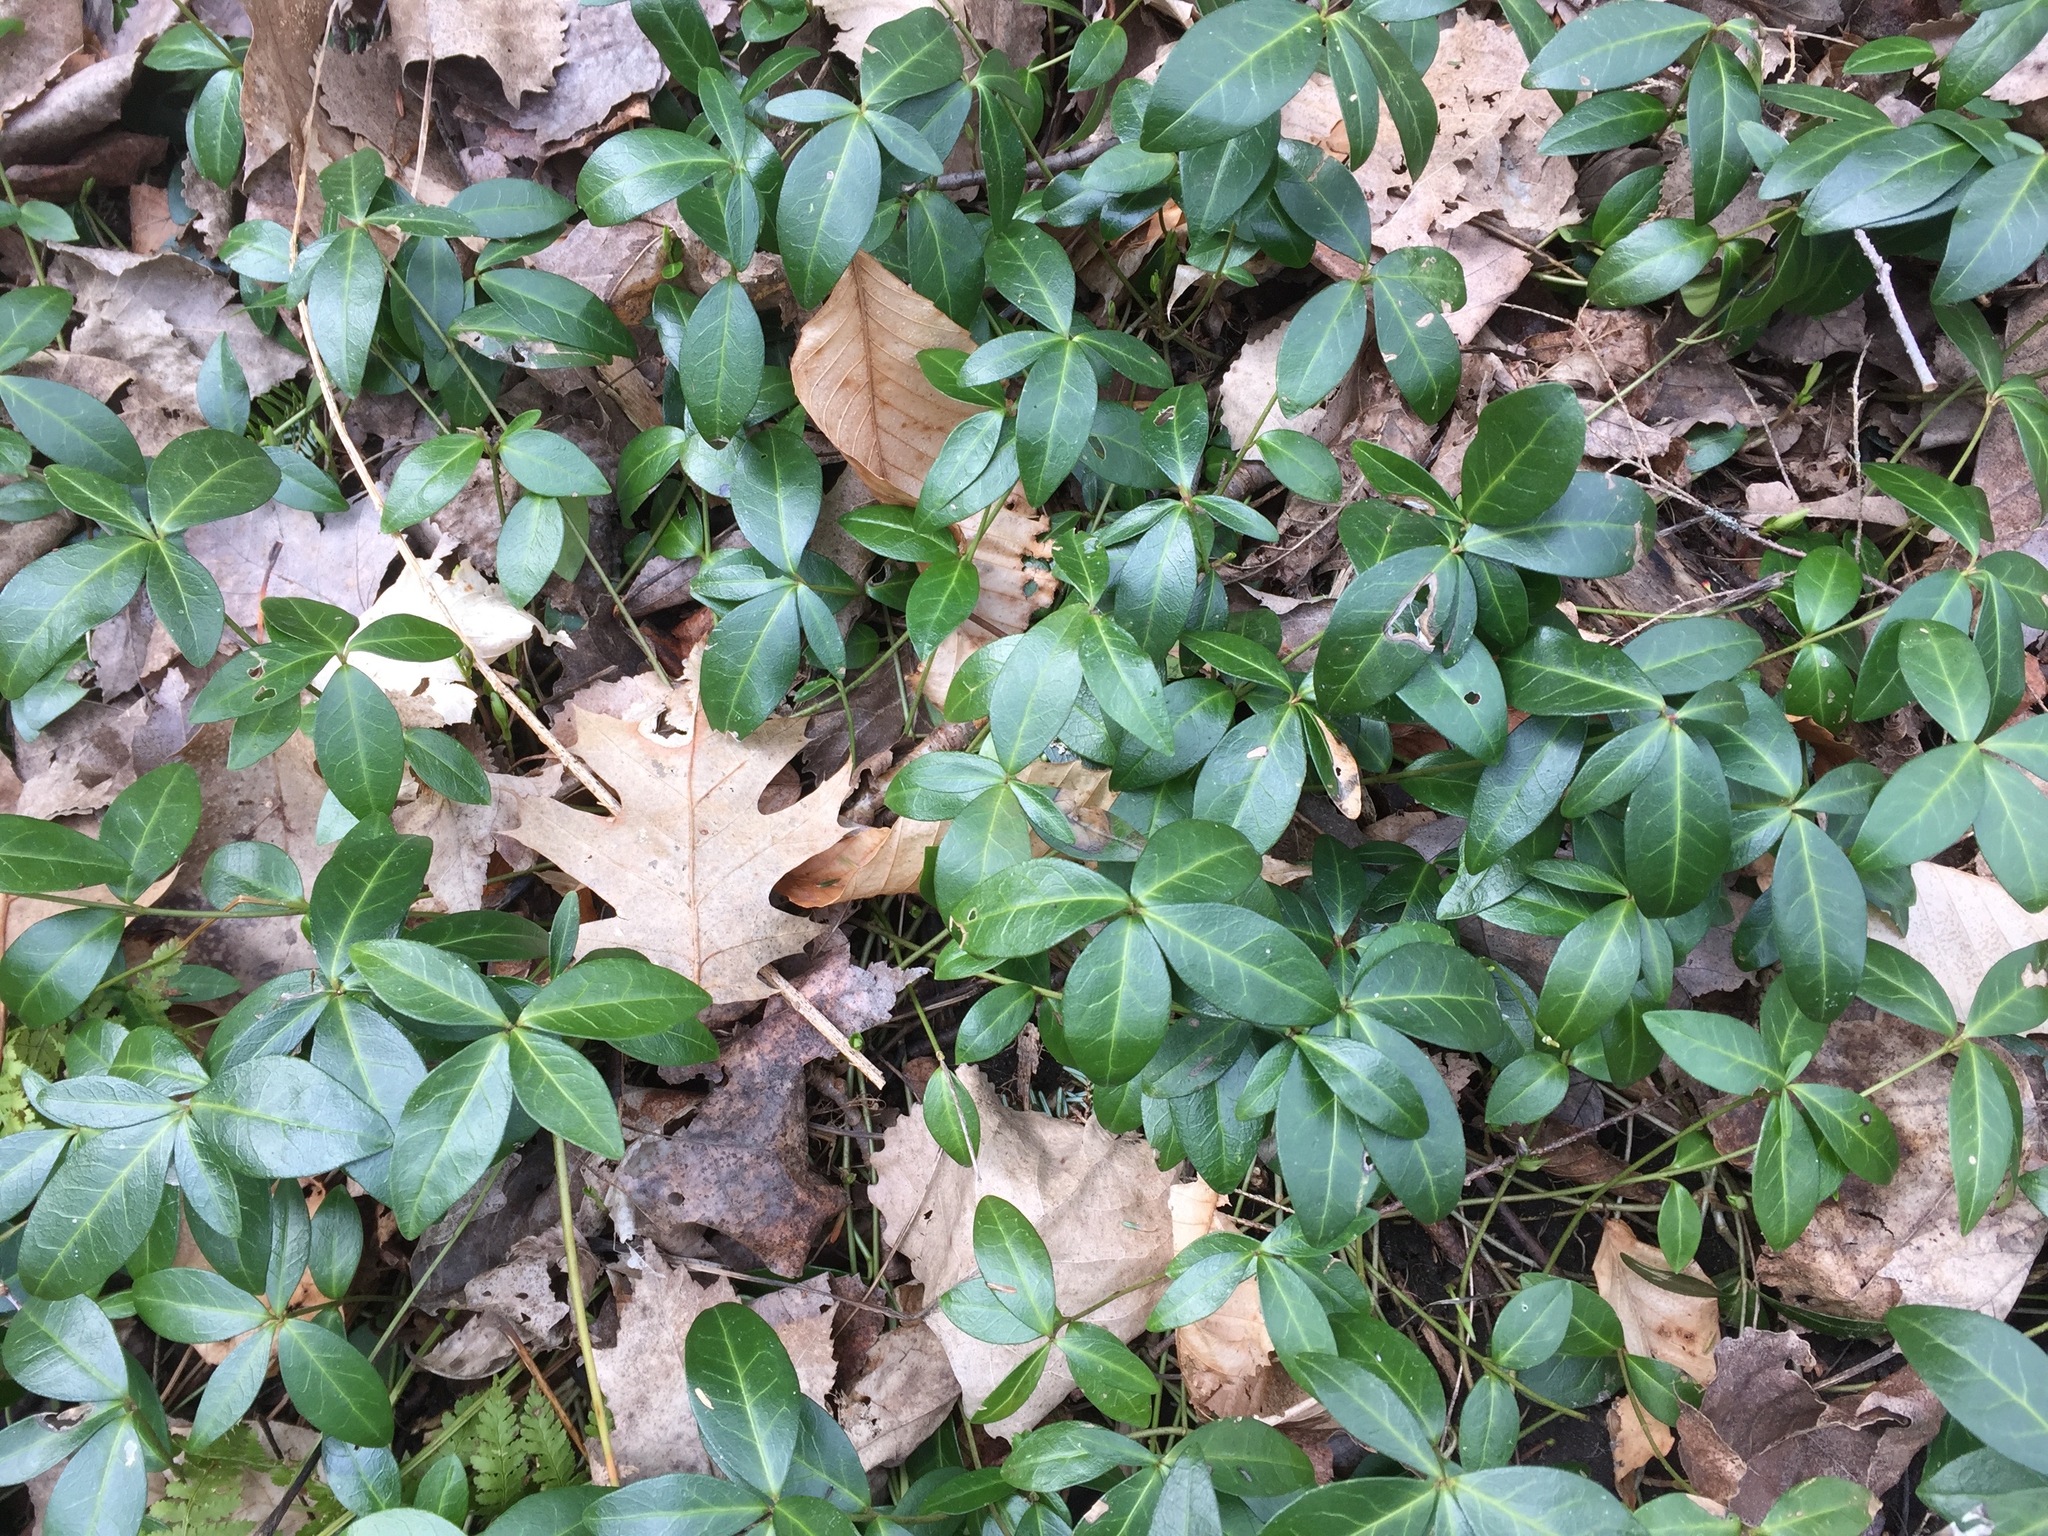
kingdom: Plantae
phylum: Tracheophyta
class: Magnoliopsida
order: Gentianales
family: Apocynaceae
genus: Vinca
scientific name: Vinca minor
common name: Lesser periwinkle
